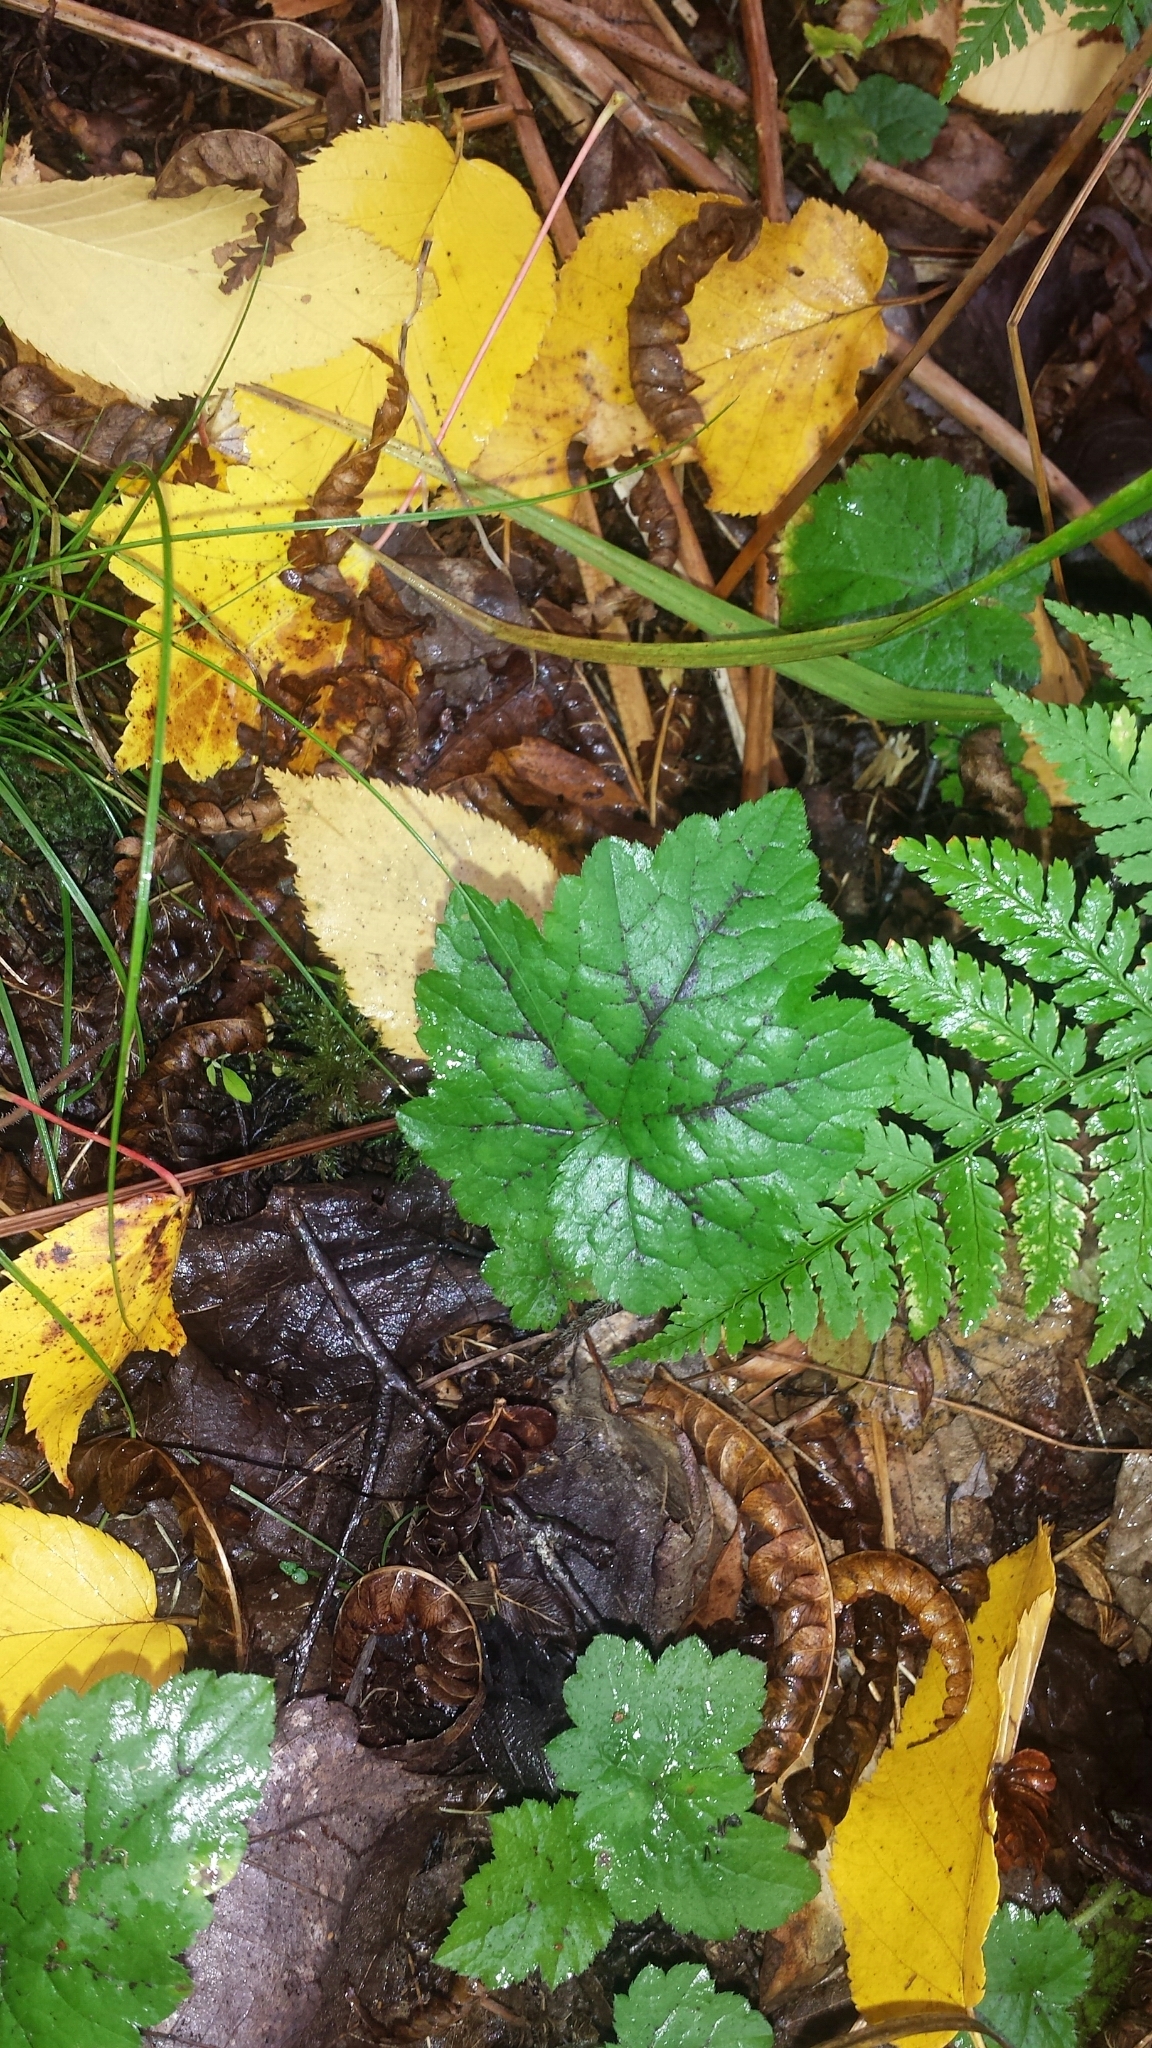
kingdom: Plantae
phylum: Tracheophyta
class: Magnoliopsida
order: Saxifragales
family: Saxifragaceae
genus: Tiarella
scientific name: Tiarella stolonifera
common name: Stoloniferous foamflower
